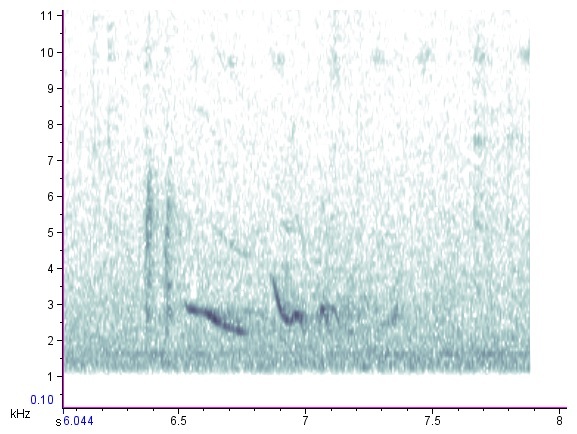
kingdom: Animalia
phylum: Chordata
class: Aves
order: Passeriformes
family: Turdidae
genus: Sialia
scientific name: Sialia sialis
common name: Eastern bluebird
